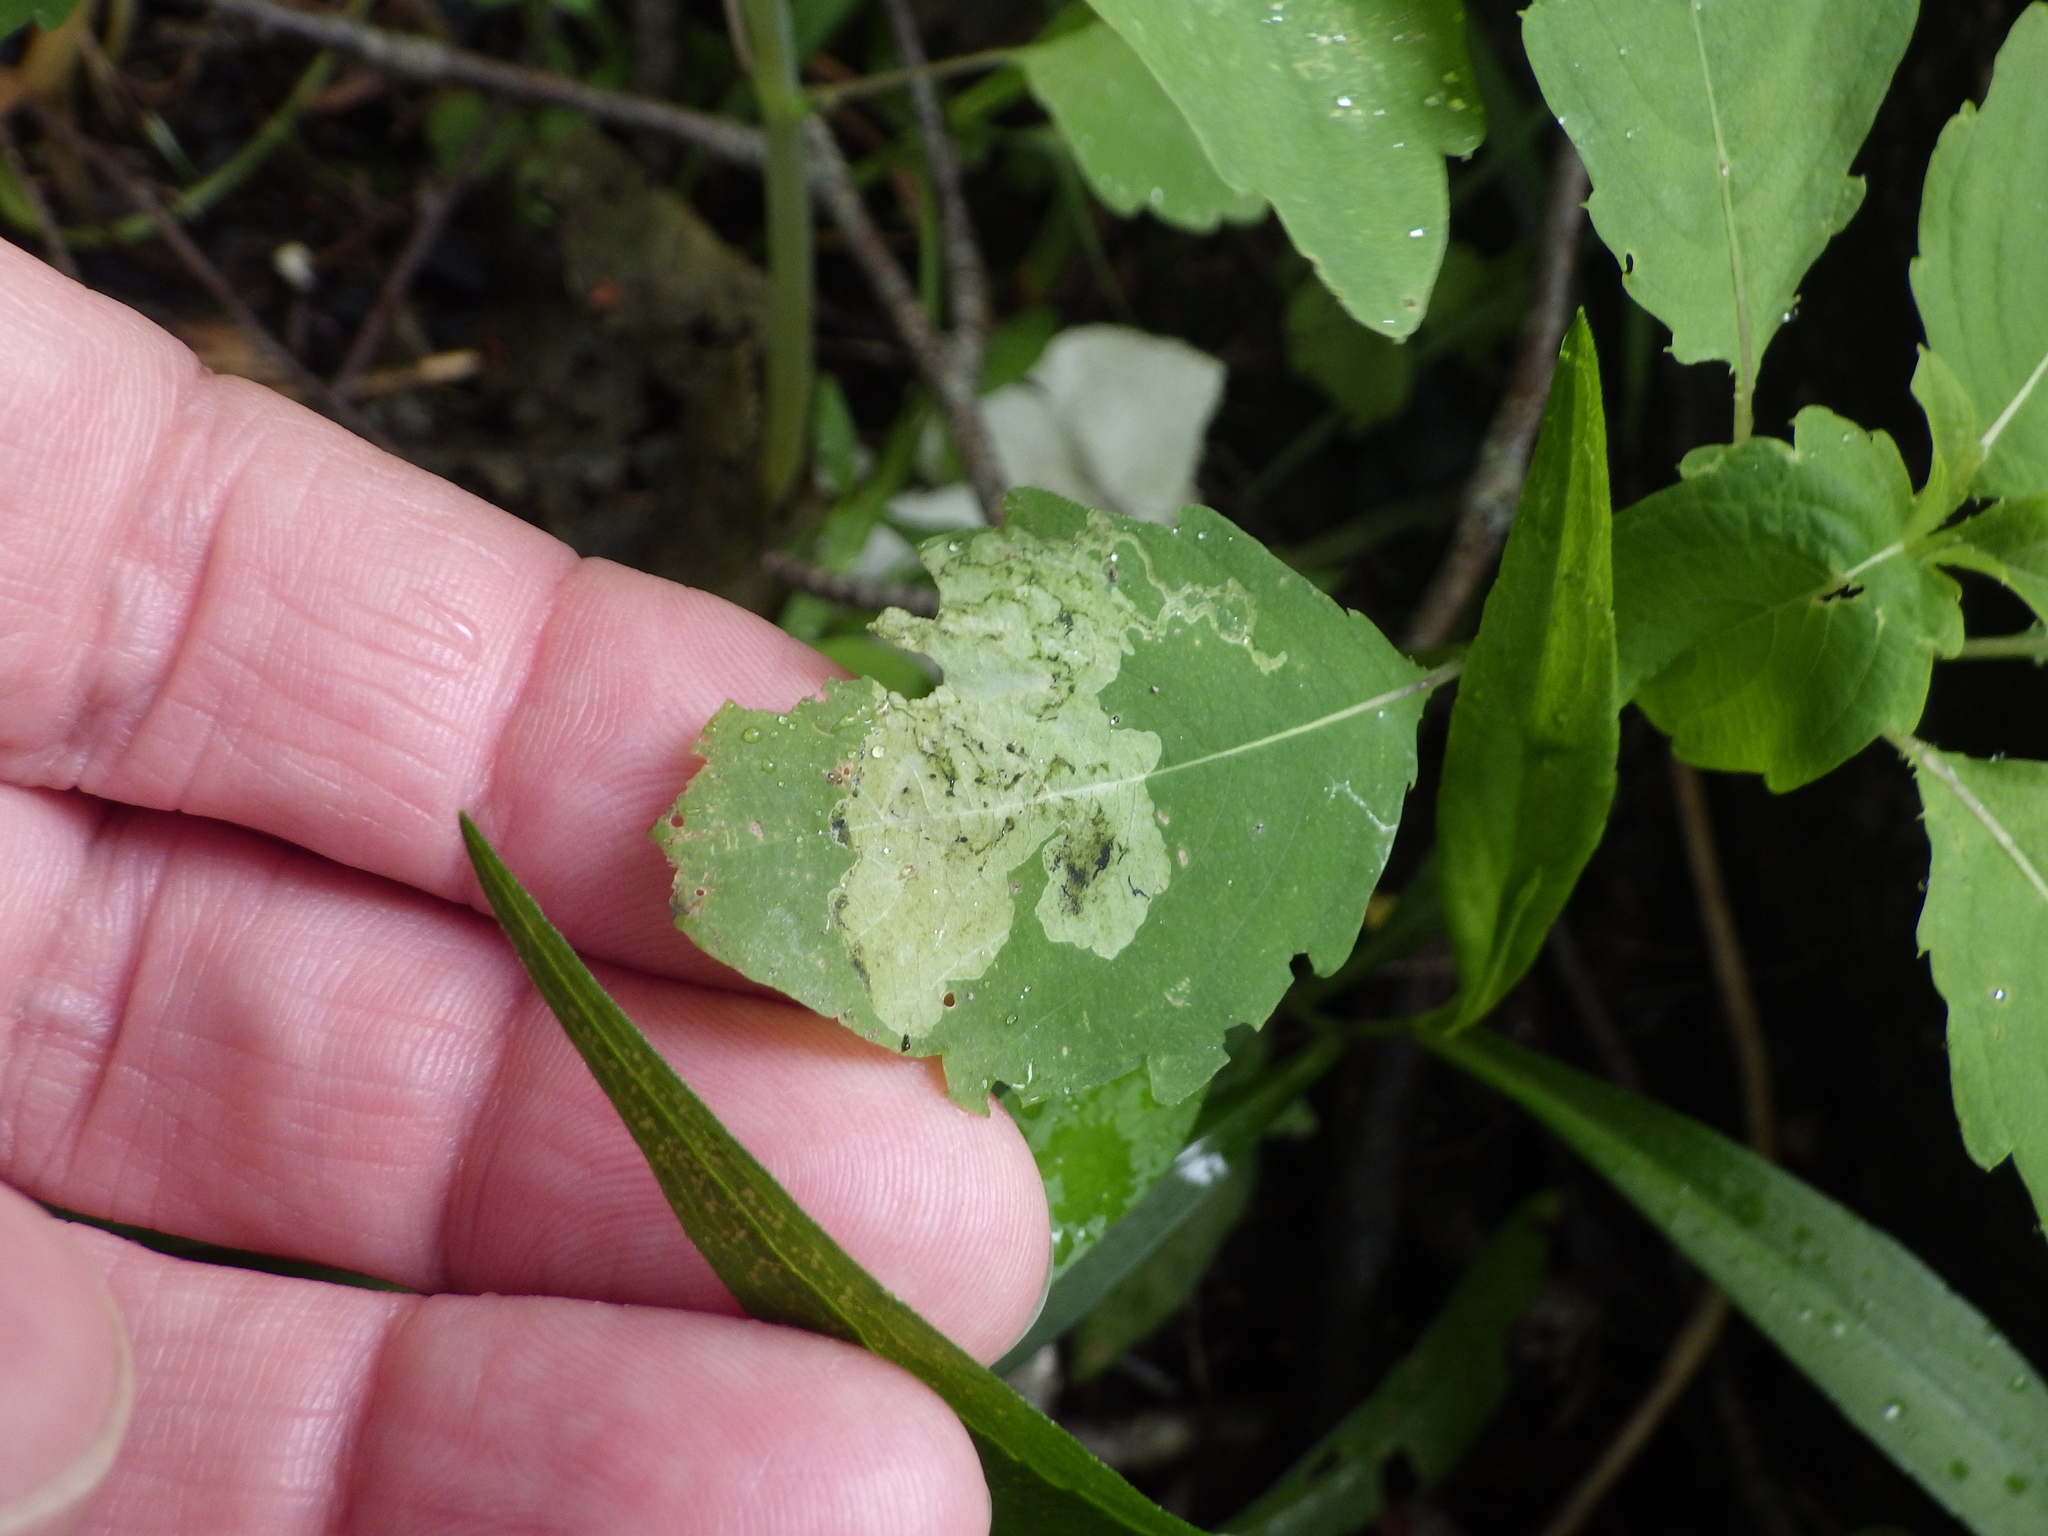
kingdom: Animalia
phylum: Arthropoda
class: Insecta
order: Diptera
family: Agromyzidae
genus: Phytoliriomyza
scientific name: Phytoliriomyza melampyga
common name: Jewelweed leaf-miner fly
